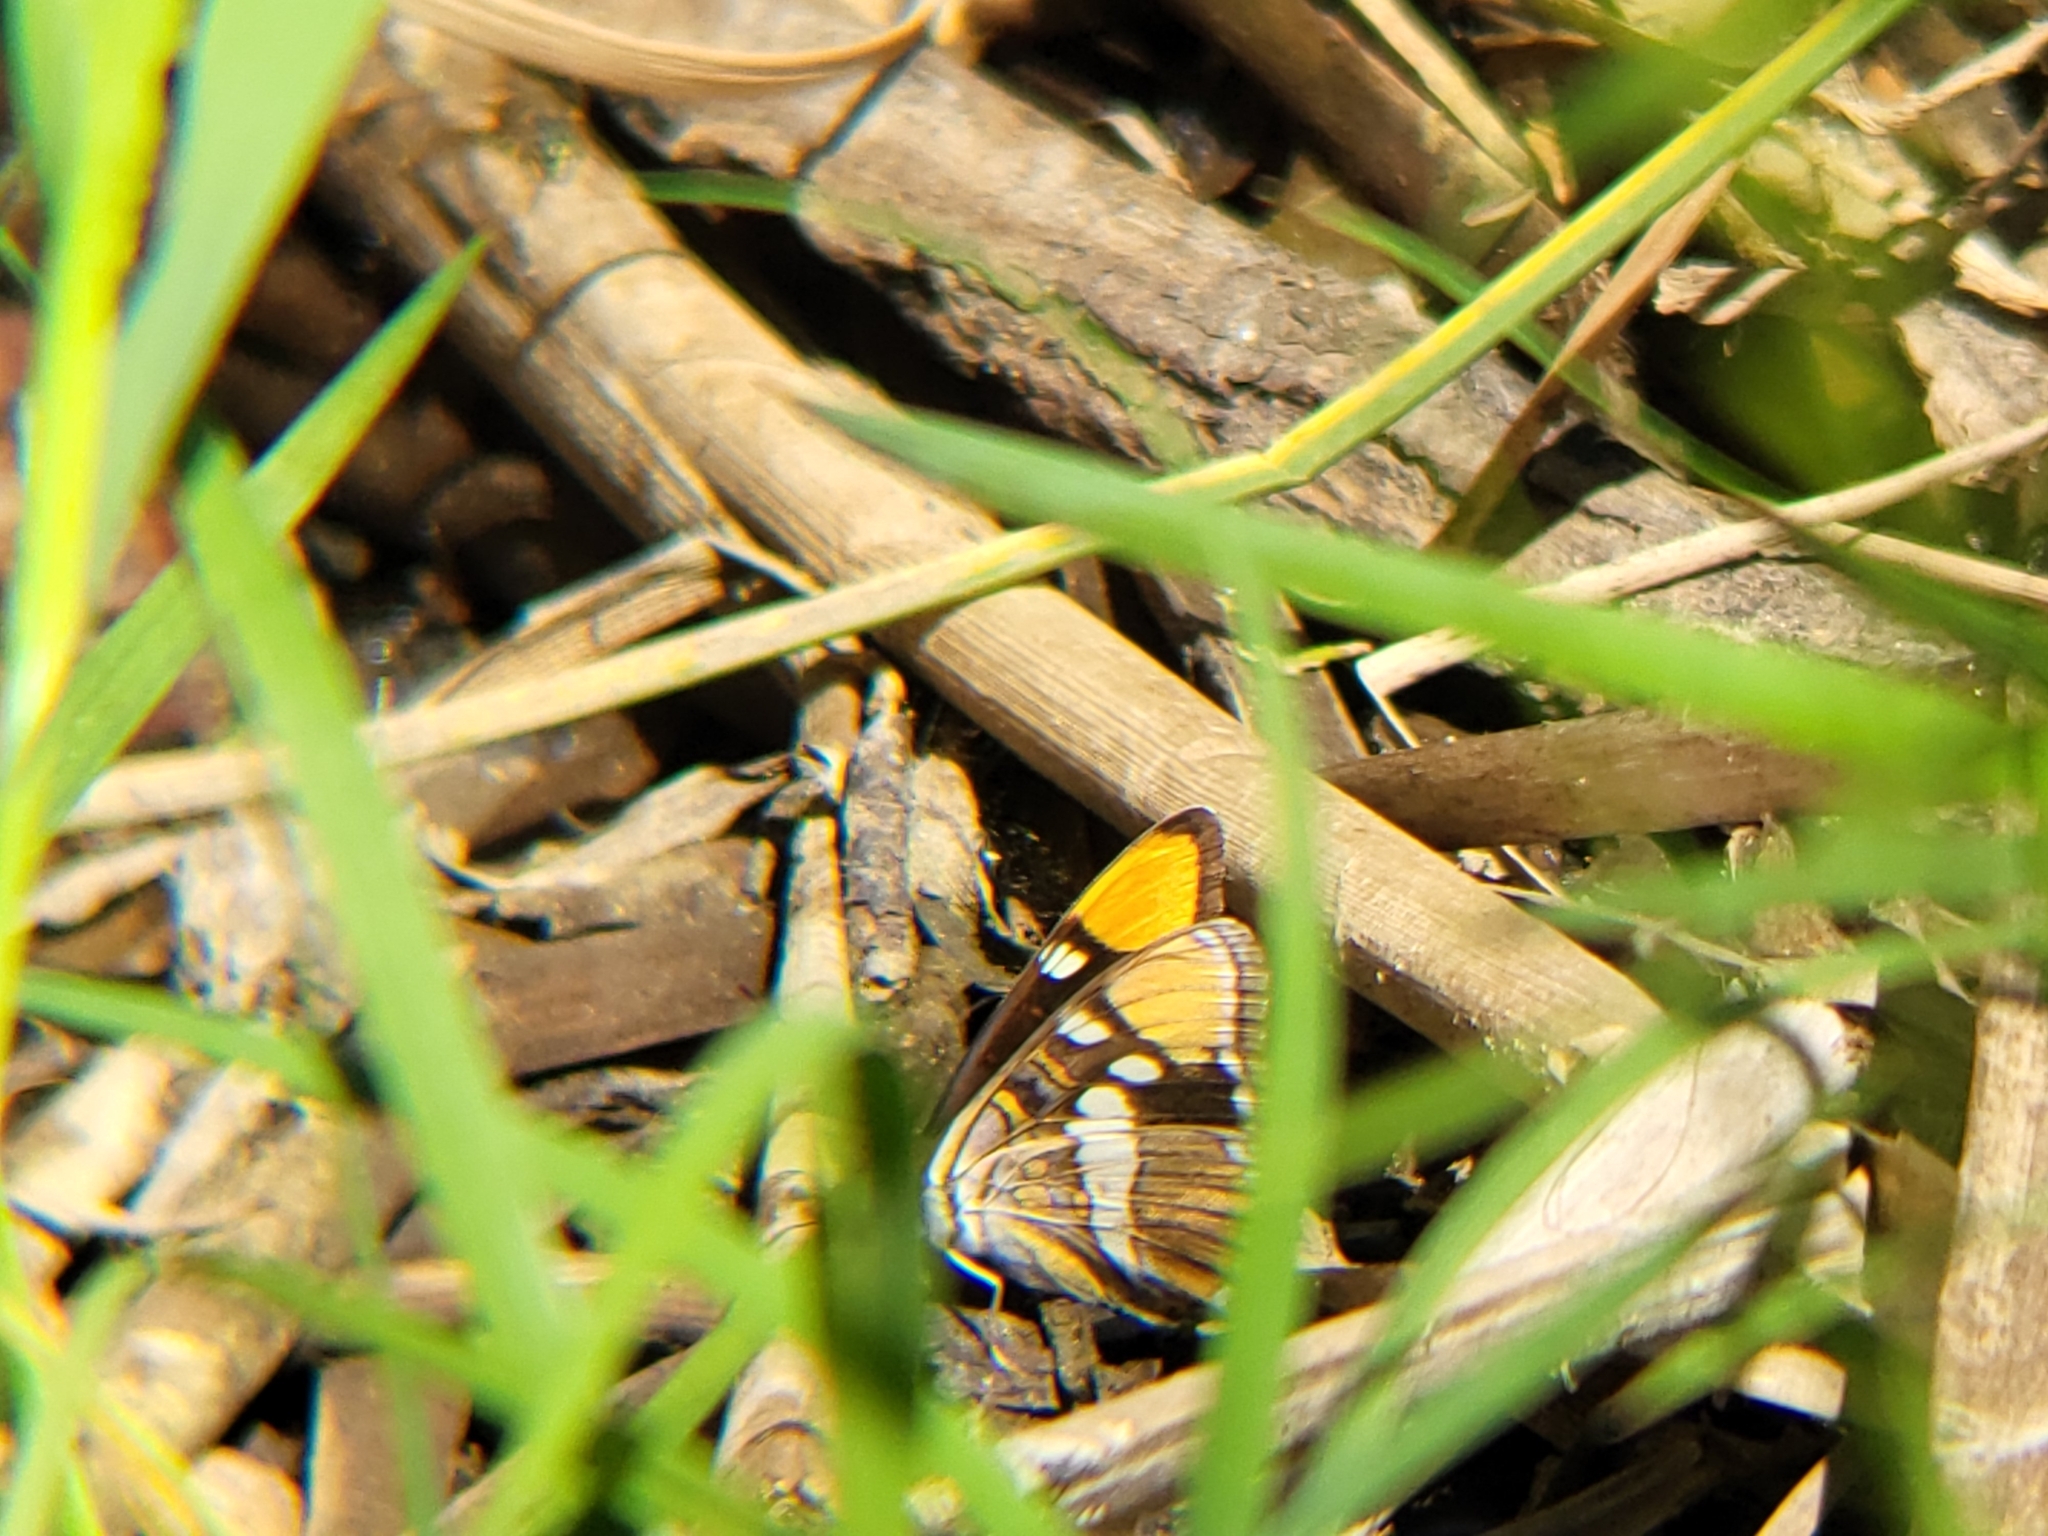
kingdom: Animalia
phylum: Arthropoda
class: Insecta
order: Lepidoptera
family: Nymphalidae
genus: Limenitis
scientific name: Limenitis bredowii
